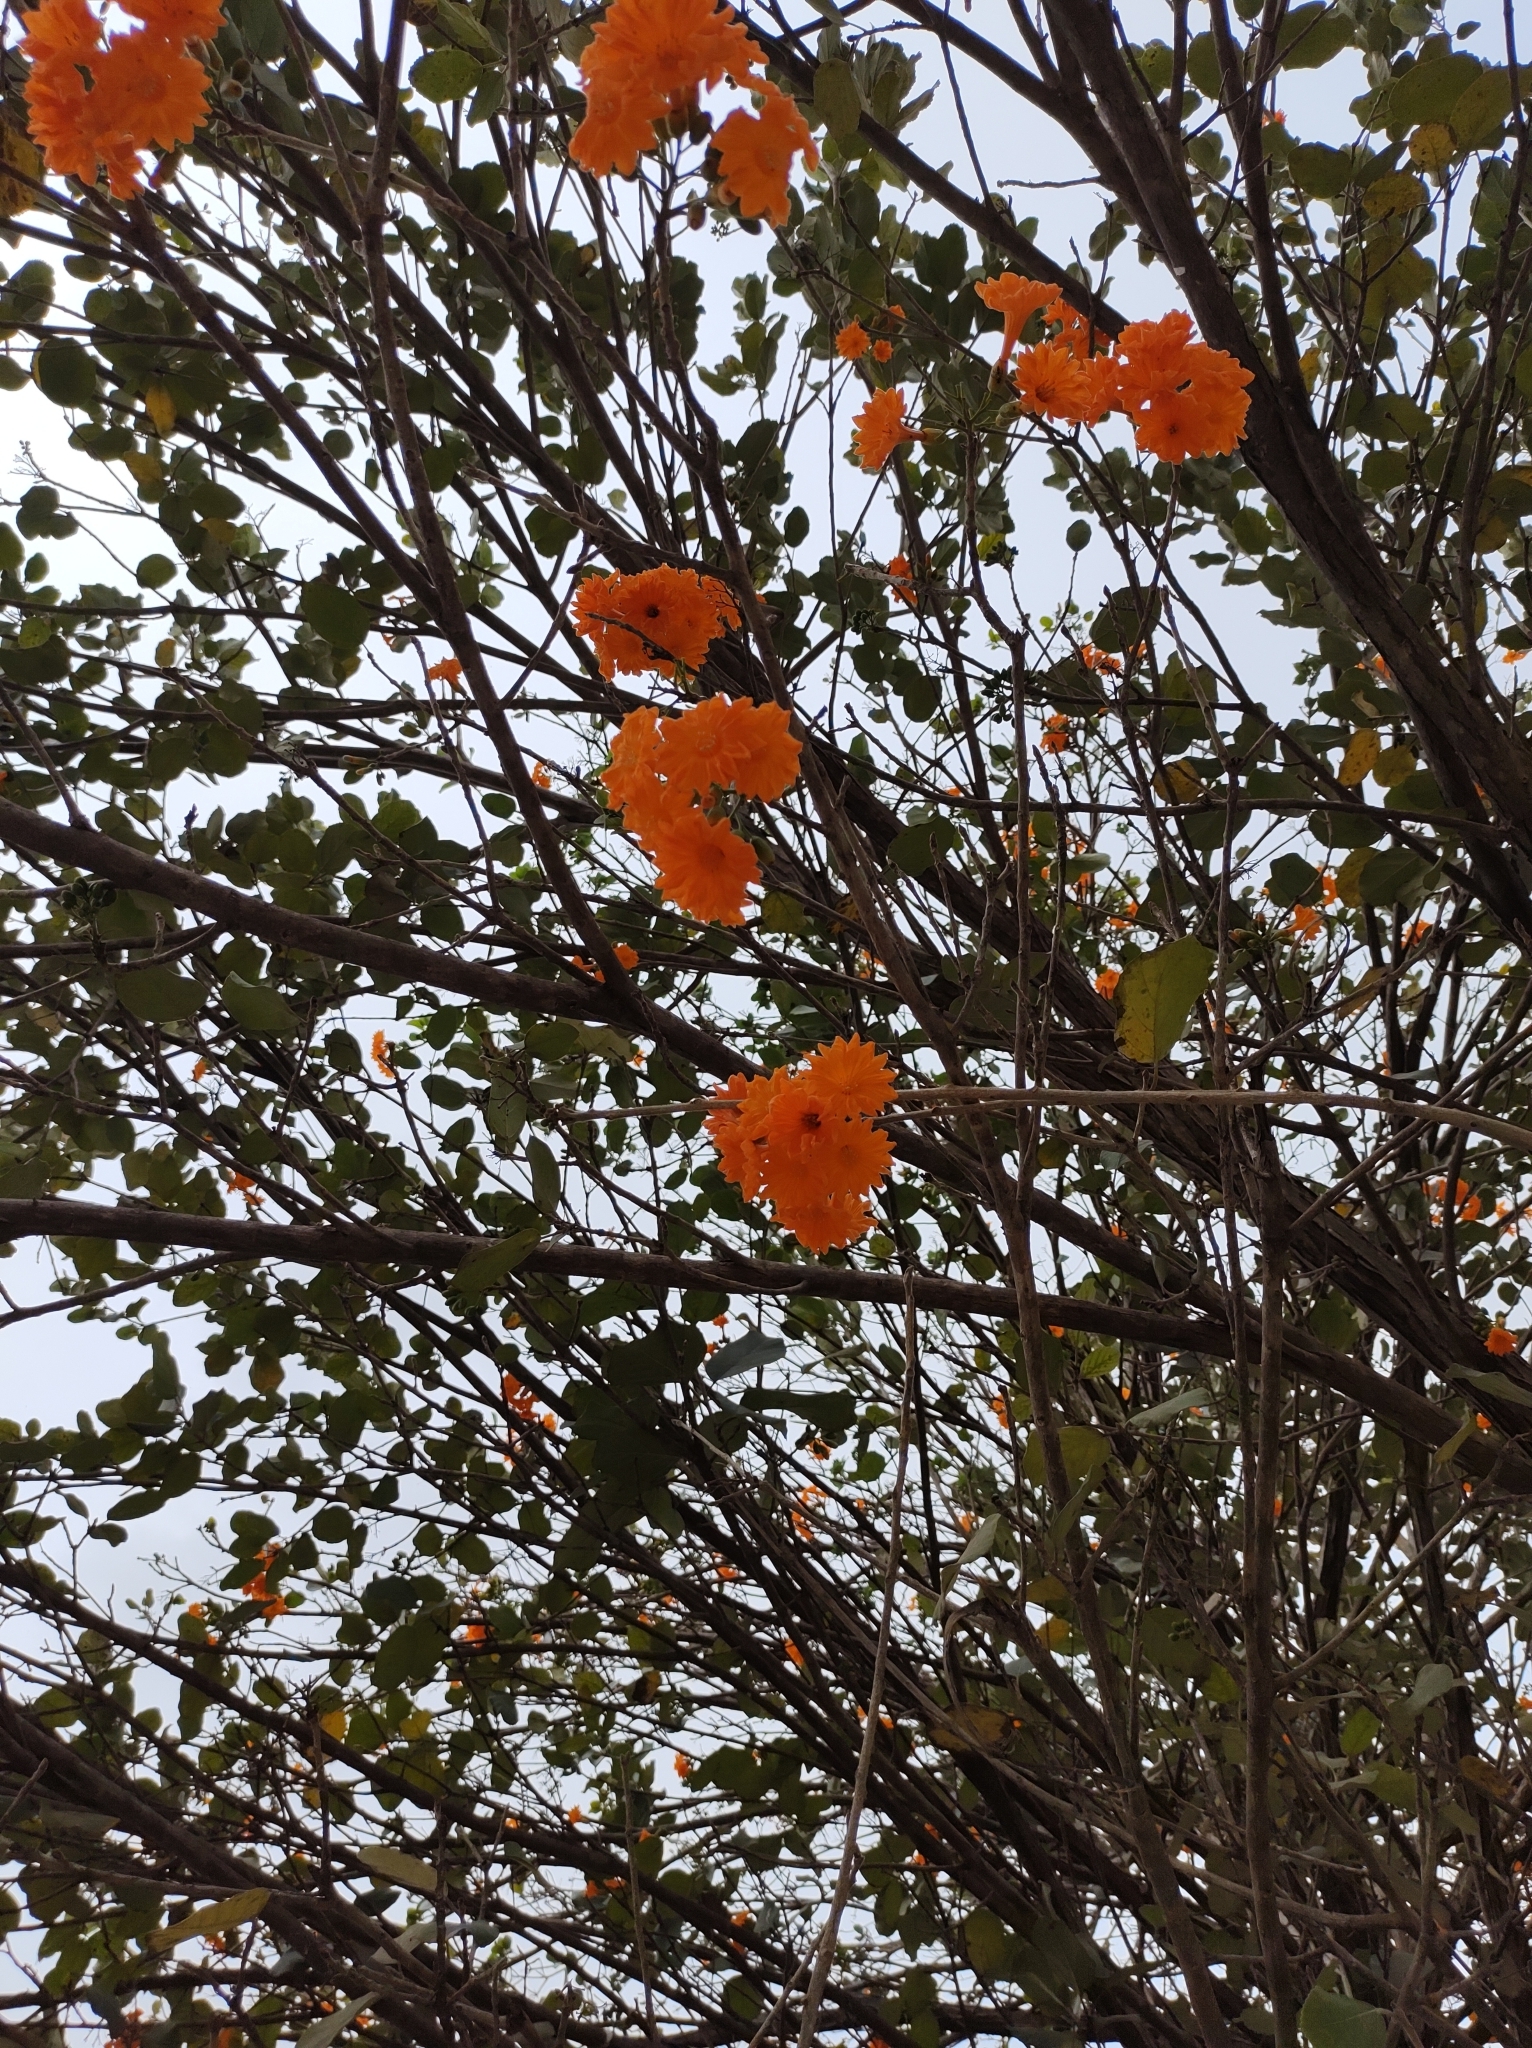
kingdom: Plantae
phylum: Tracheophyta
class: Magnoliopsida
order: Boraginales
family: Cordiaceae
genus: Cordia
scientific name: Cordia sebestena
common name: Largeleaf geigertree
